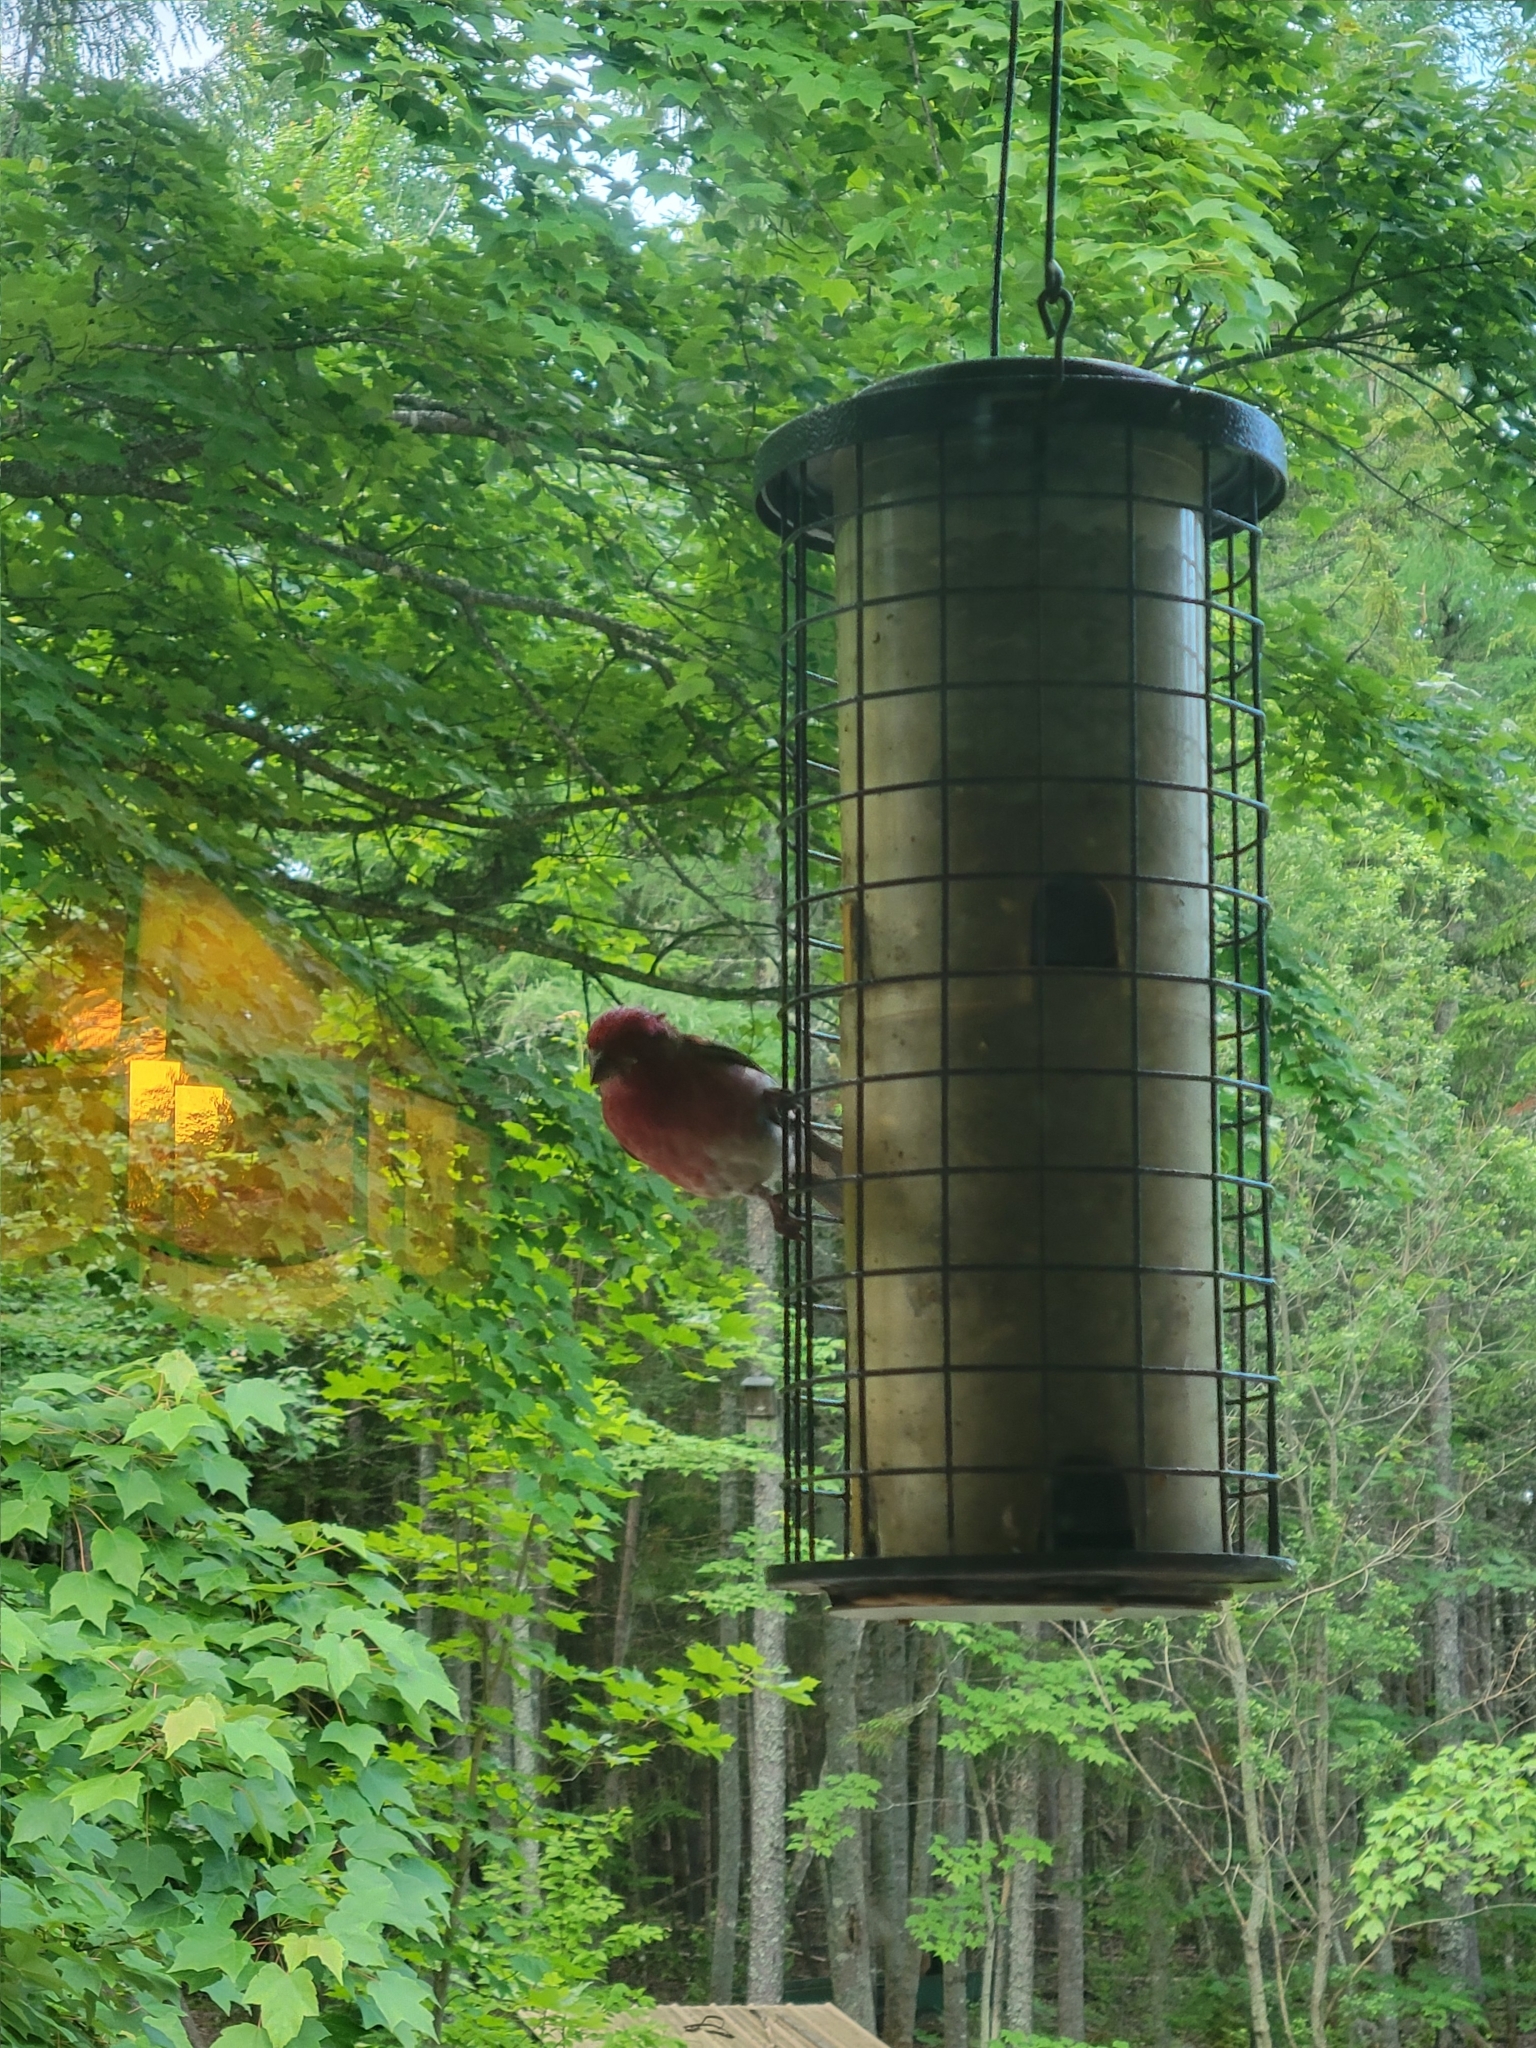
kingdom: Animalia
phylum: Chordata
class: Aves
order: Passeriformes
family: Fringillidae
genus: Haemorhous
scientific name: Haemorhous purpureus
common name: Purple finch
